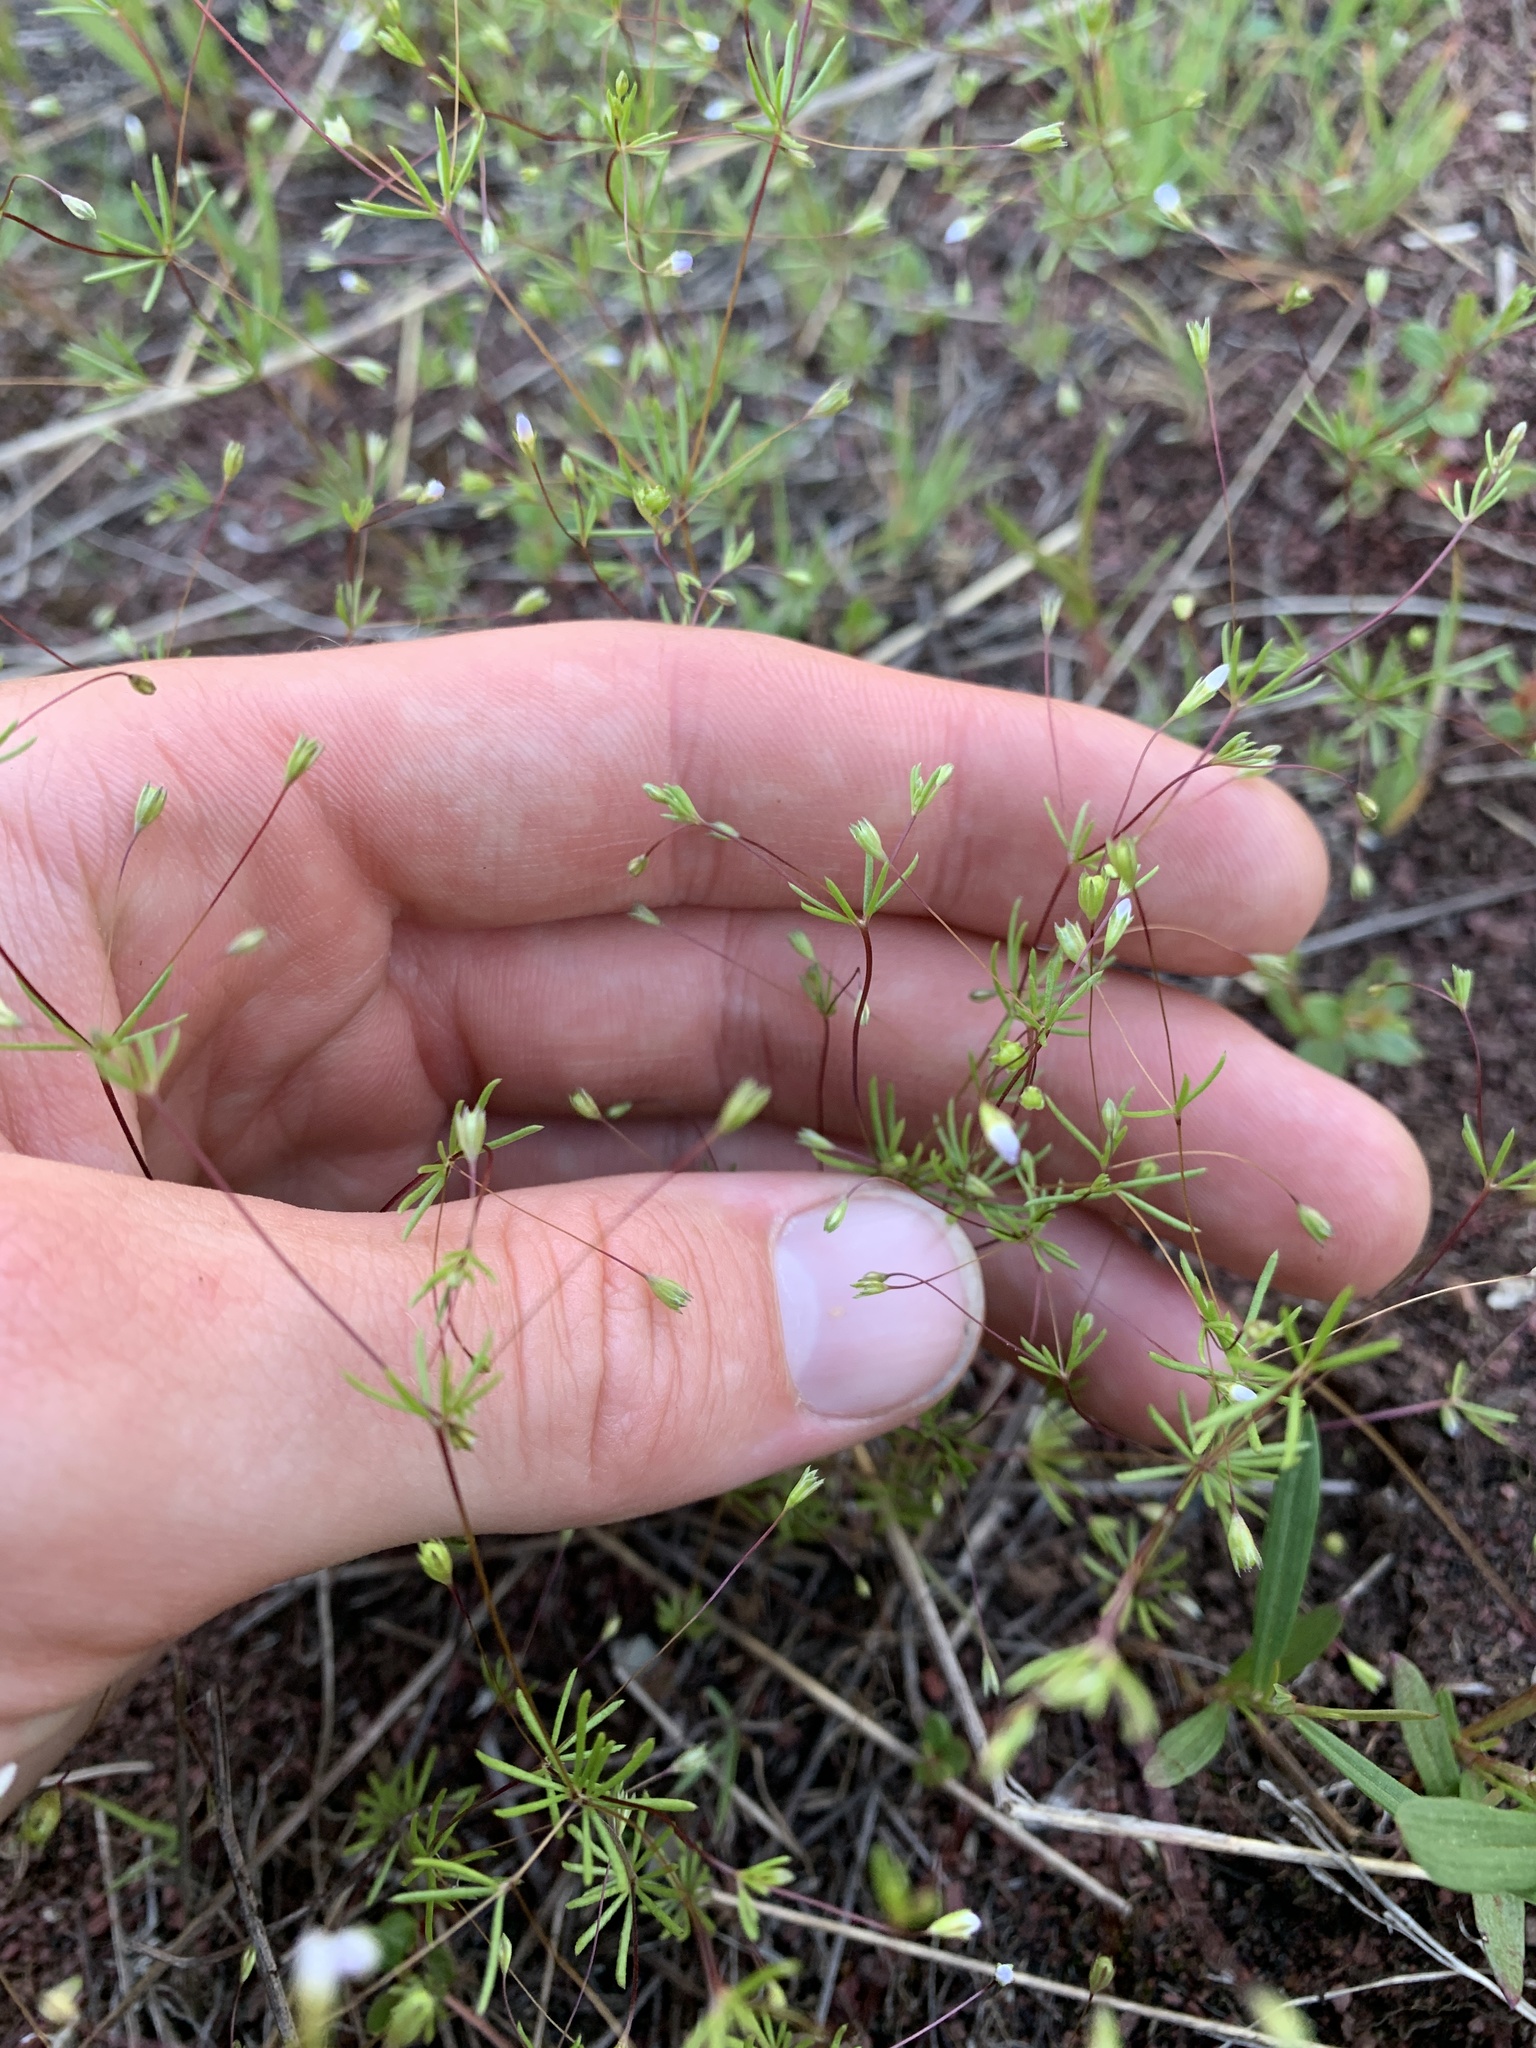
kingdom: Plantae
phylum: Tracheophyta
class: Magnoliopsida
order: Ericales
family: Polemoniaceae
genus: Leptosiphon
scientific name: Leptosiphon septentrionalis
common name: Northern linanthus
